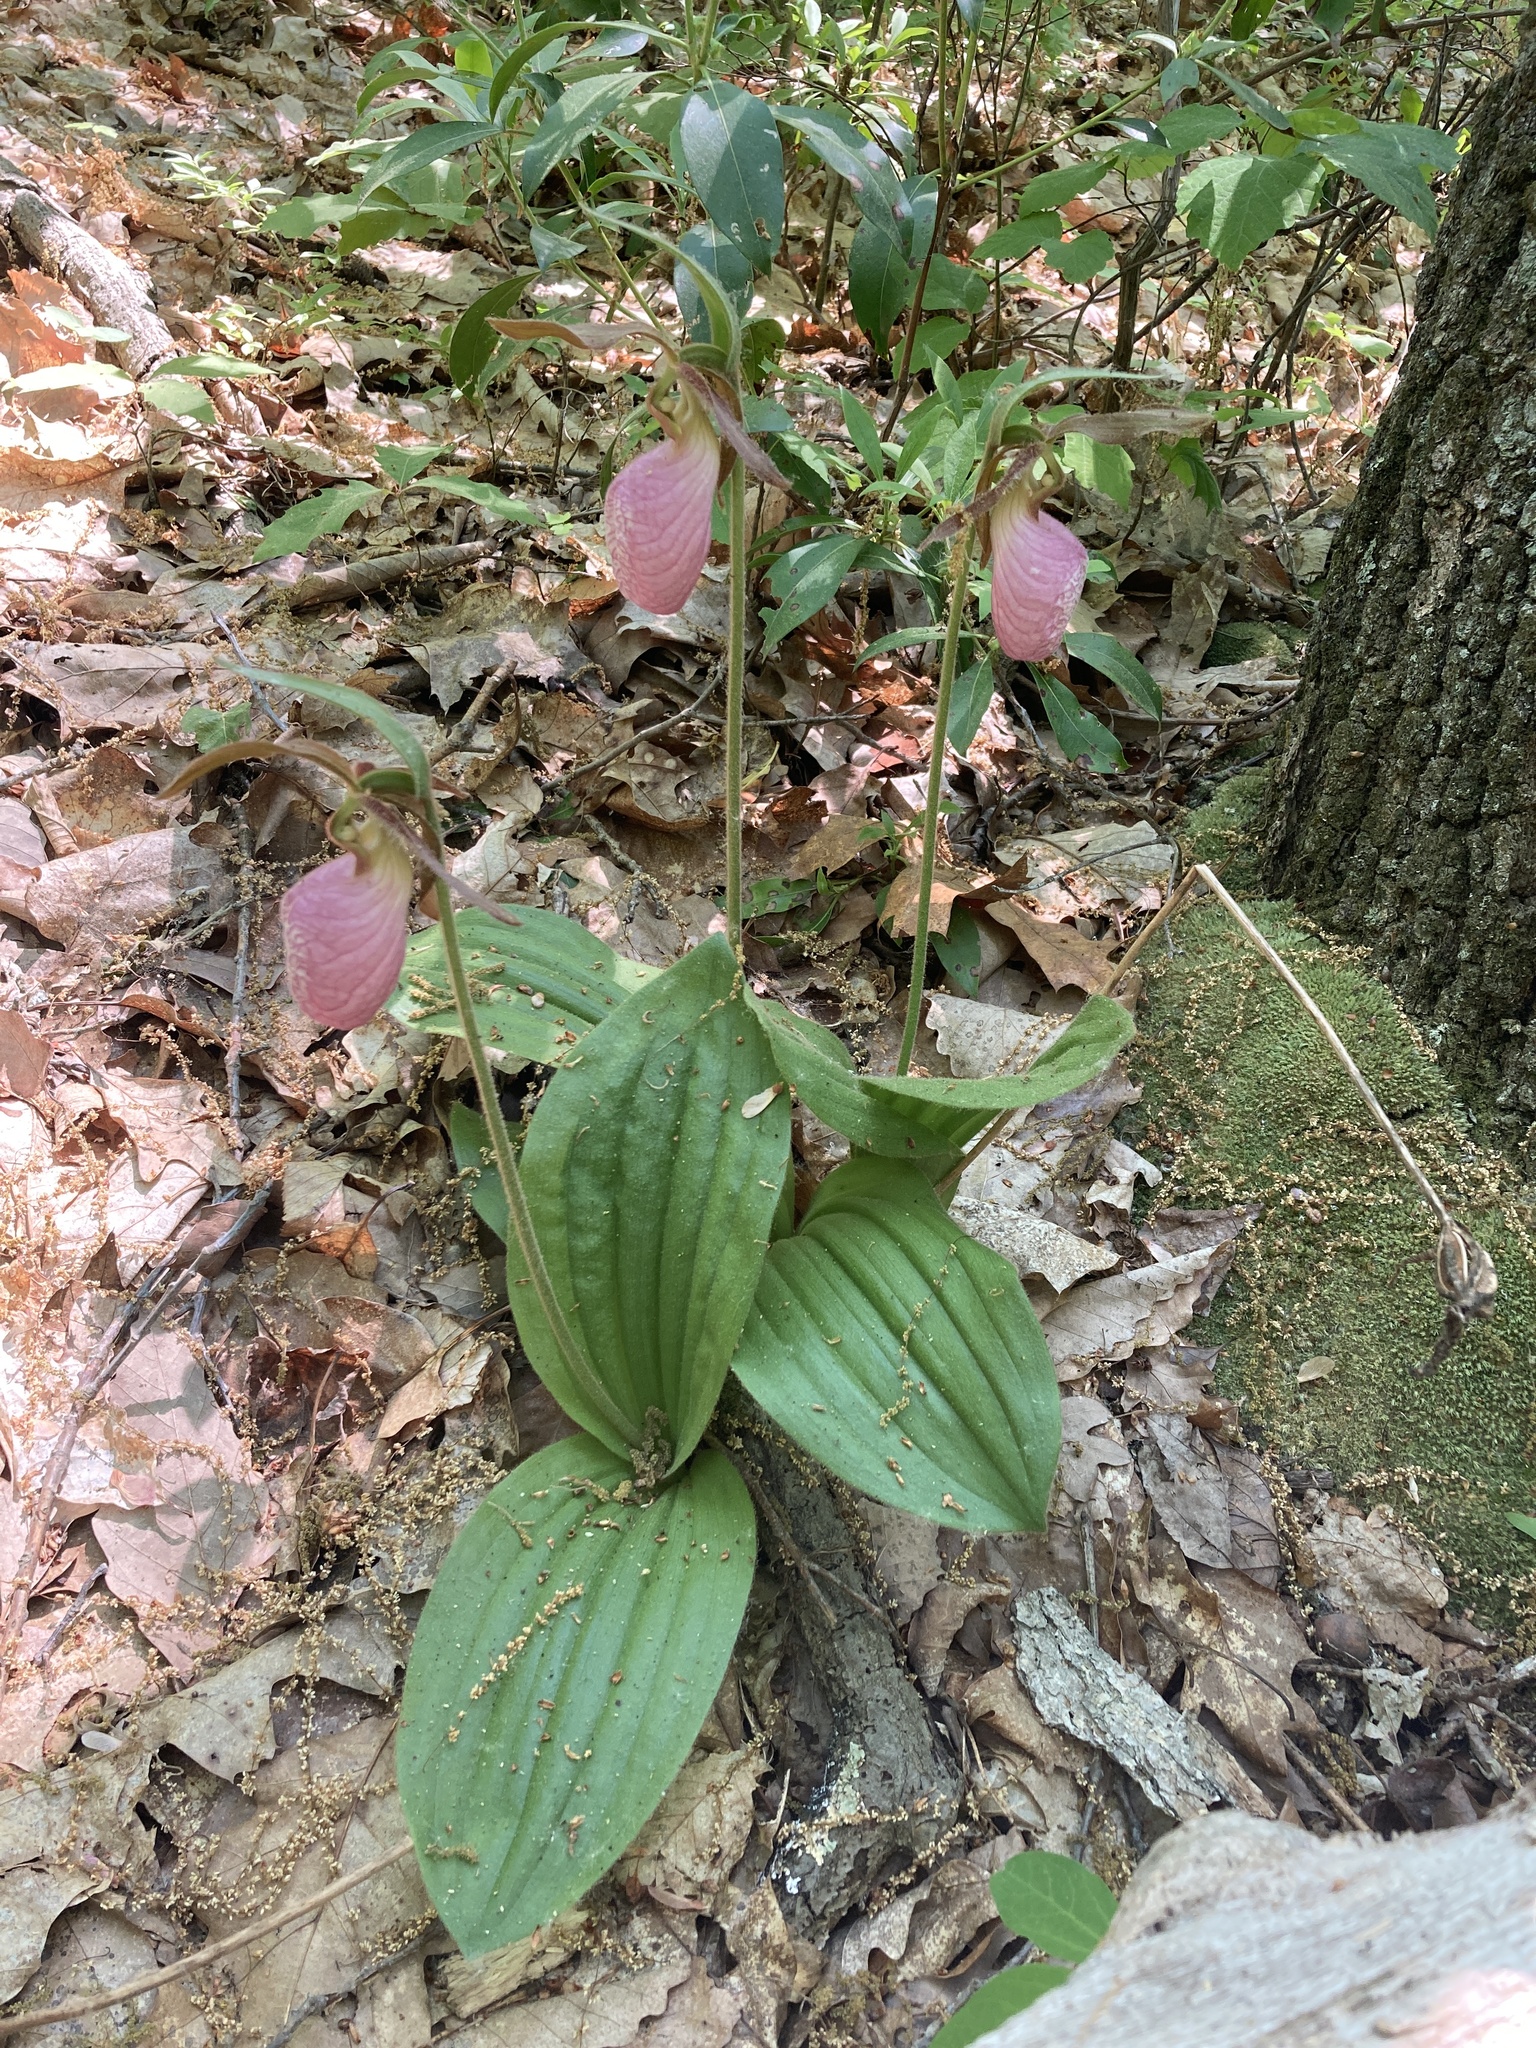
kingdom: Plantae
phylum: Tracheophyta
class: Liliopsida
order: Asparagales
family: Orchidaceae
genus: Cypripedium
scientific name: Cypripedium acaule
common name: Pink lady's-slipper
